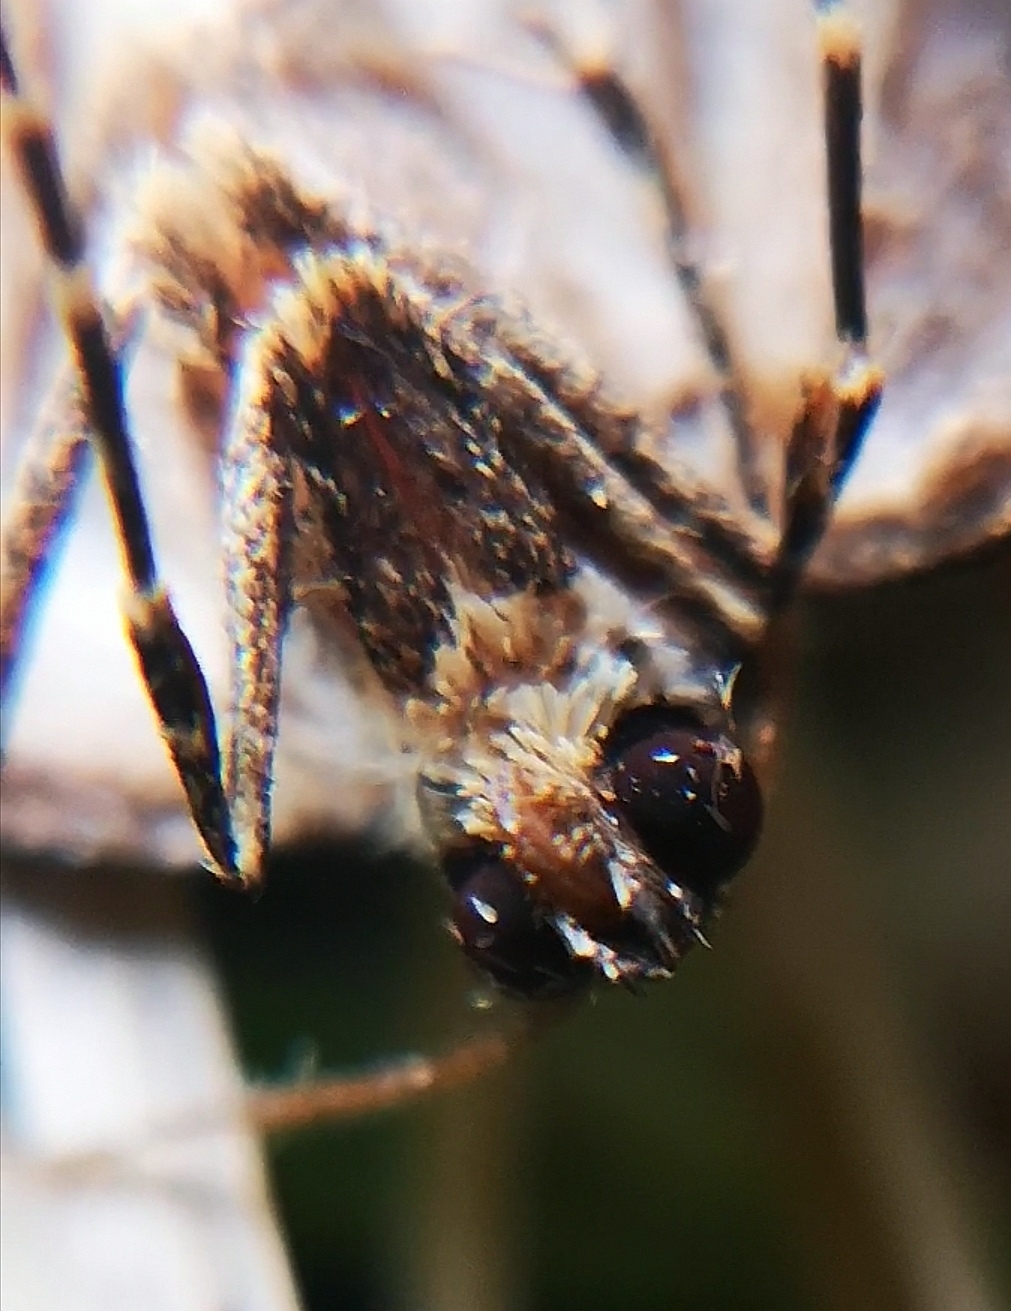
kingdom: Animalia
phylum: Arthropoda
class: Insecta
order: Lepidoptera
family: Geometridae
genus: Lampropteryx
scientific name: Lampropteryx suffumata
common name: Water carpet
